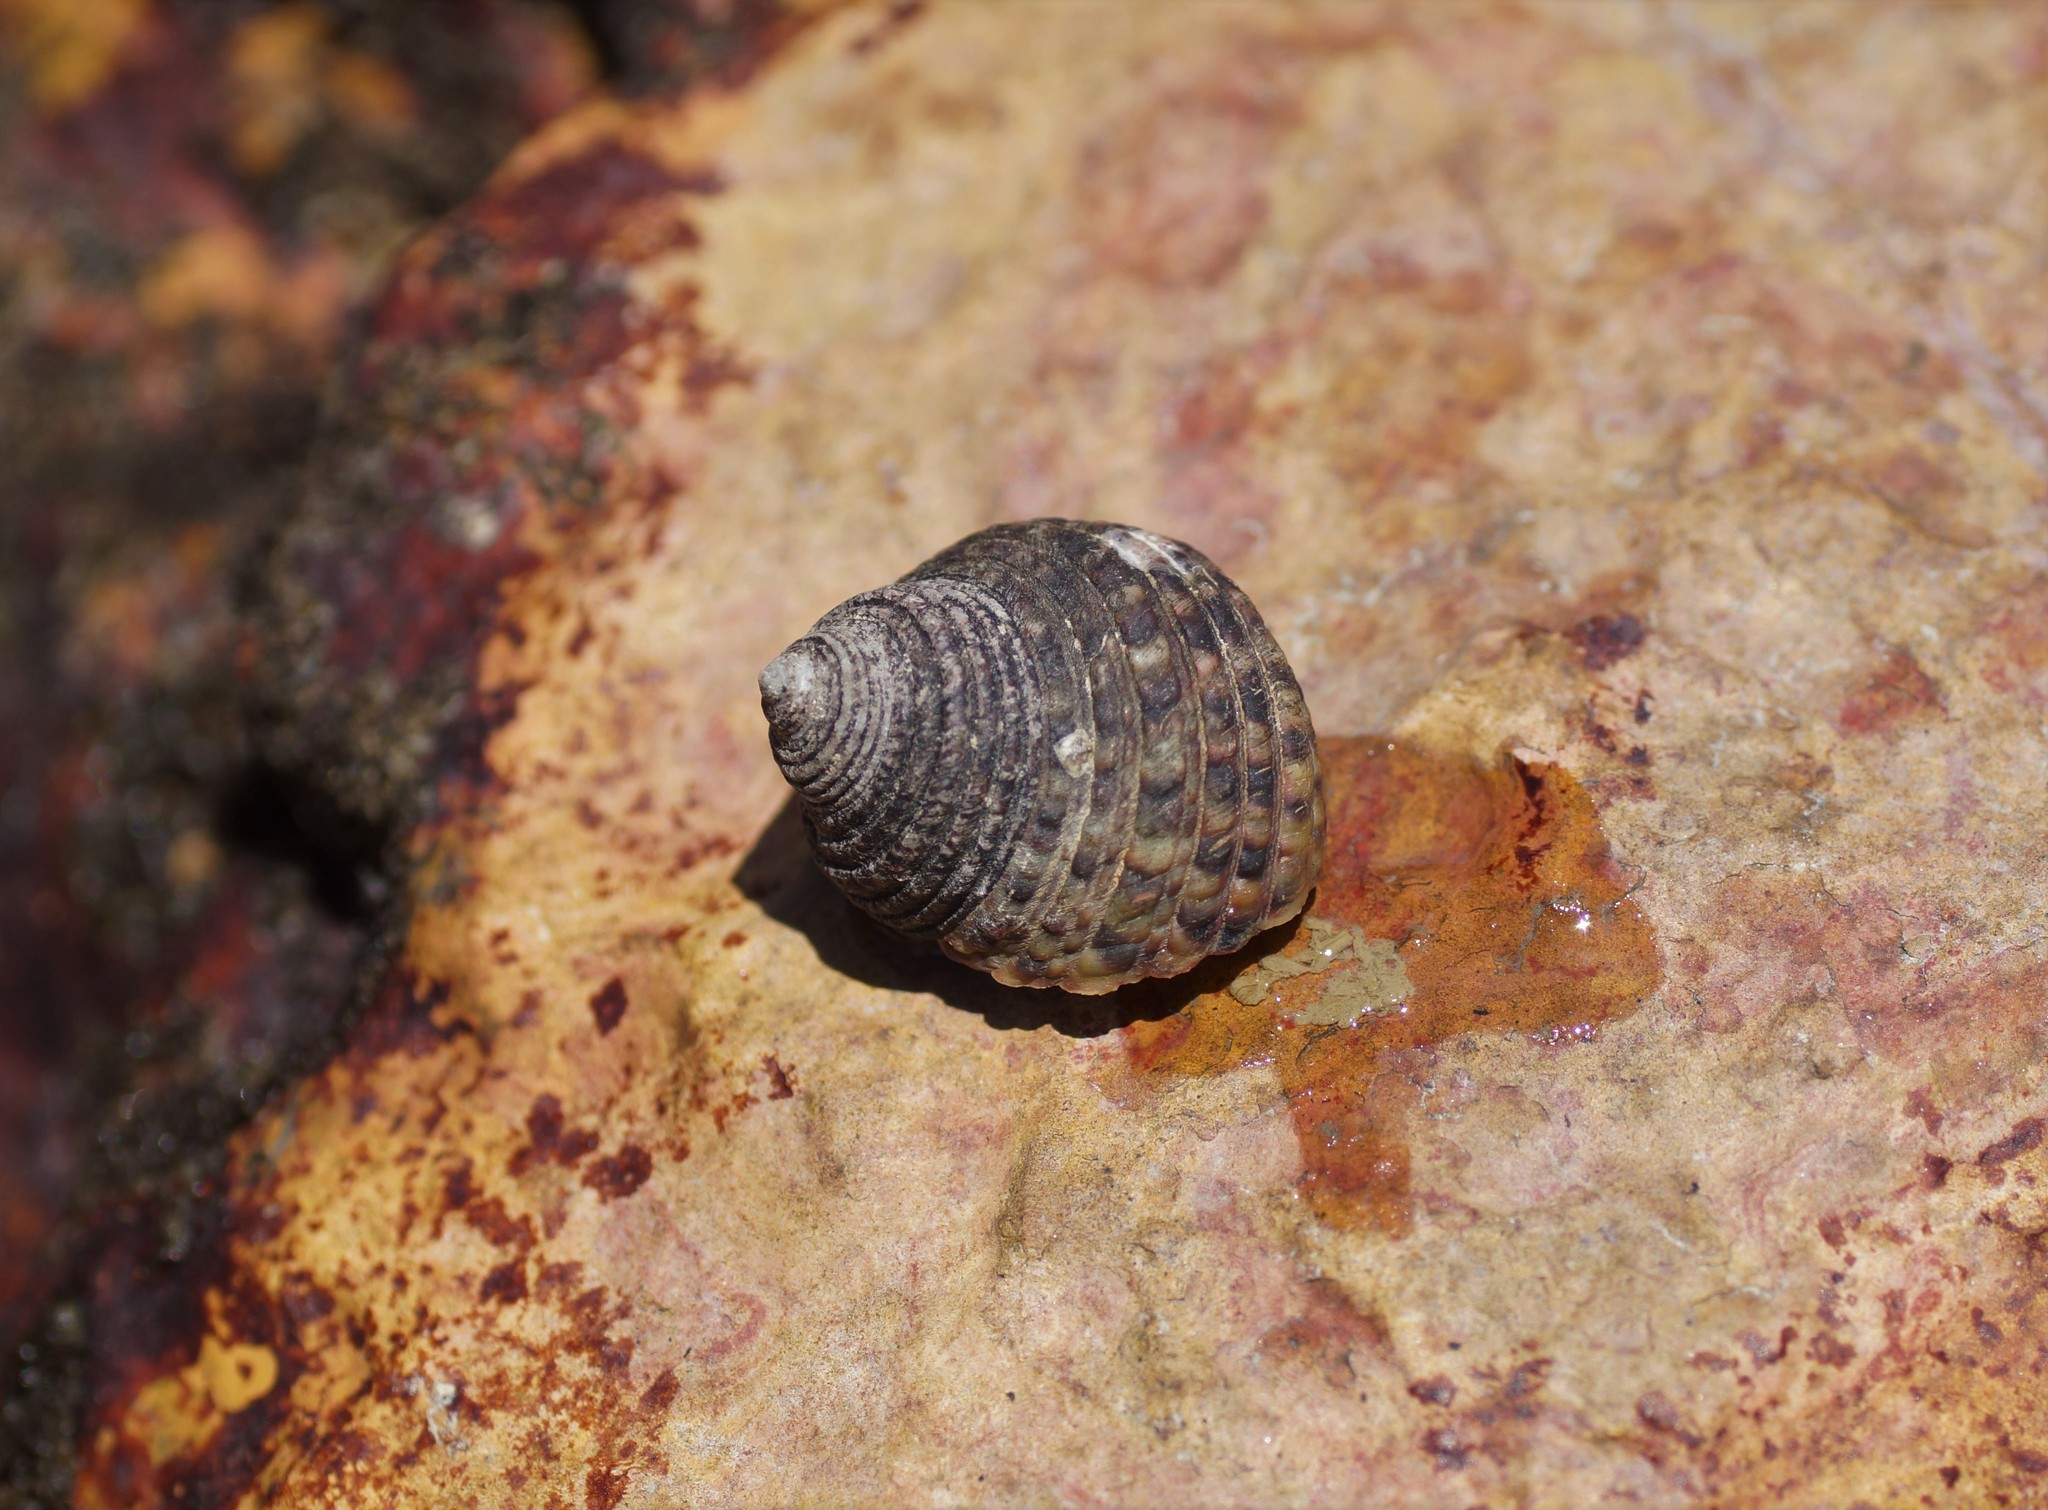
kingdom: Animalia
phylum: Mollusca
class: Gastropoda
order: Trochida
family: Trochidae
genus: Monodonta
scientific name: Monodonta labio
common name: Labio
